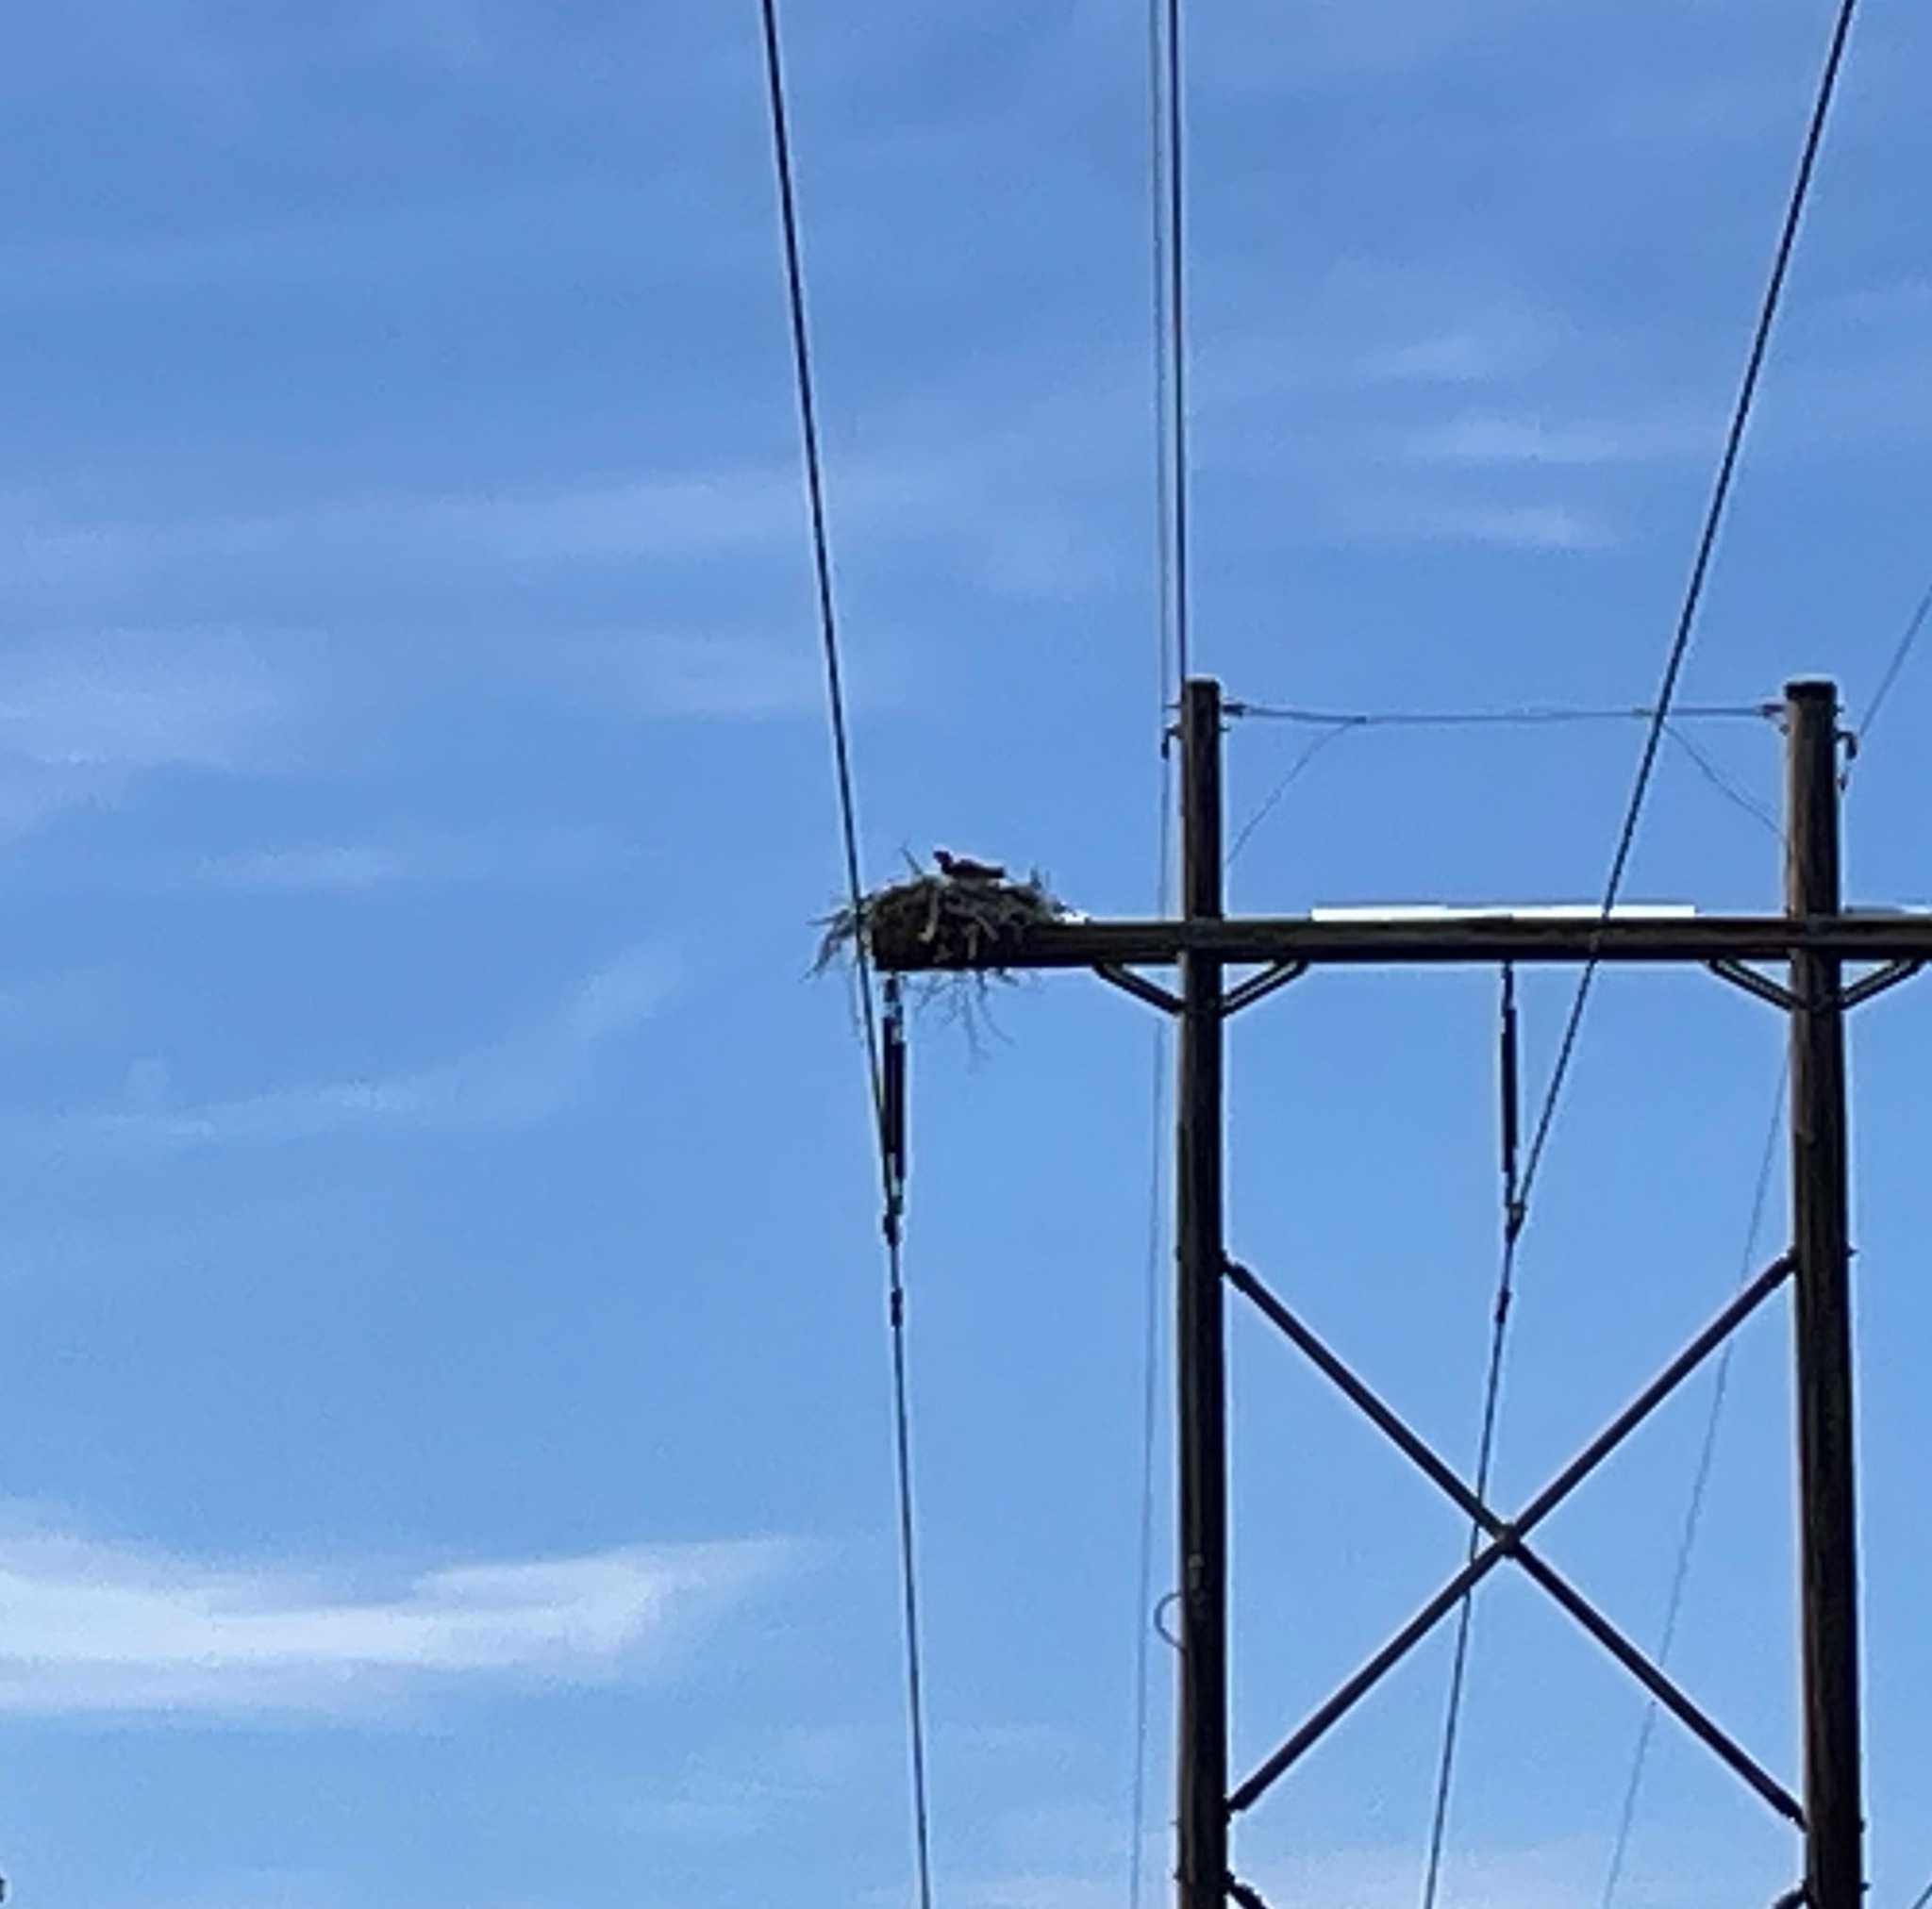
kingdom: Animalia
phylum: Chordata
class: Aves
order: Accipitriformes
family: Pandionidae
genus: Pandion
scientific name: Pandion haliaetus
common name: Osprey
